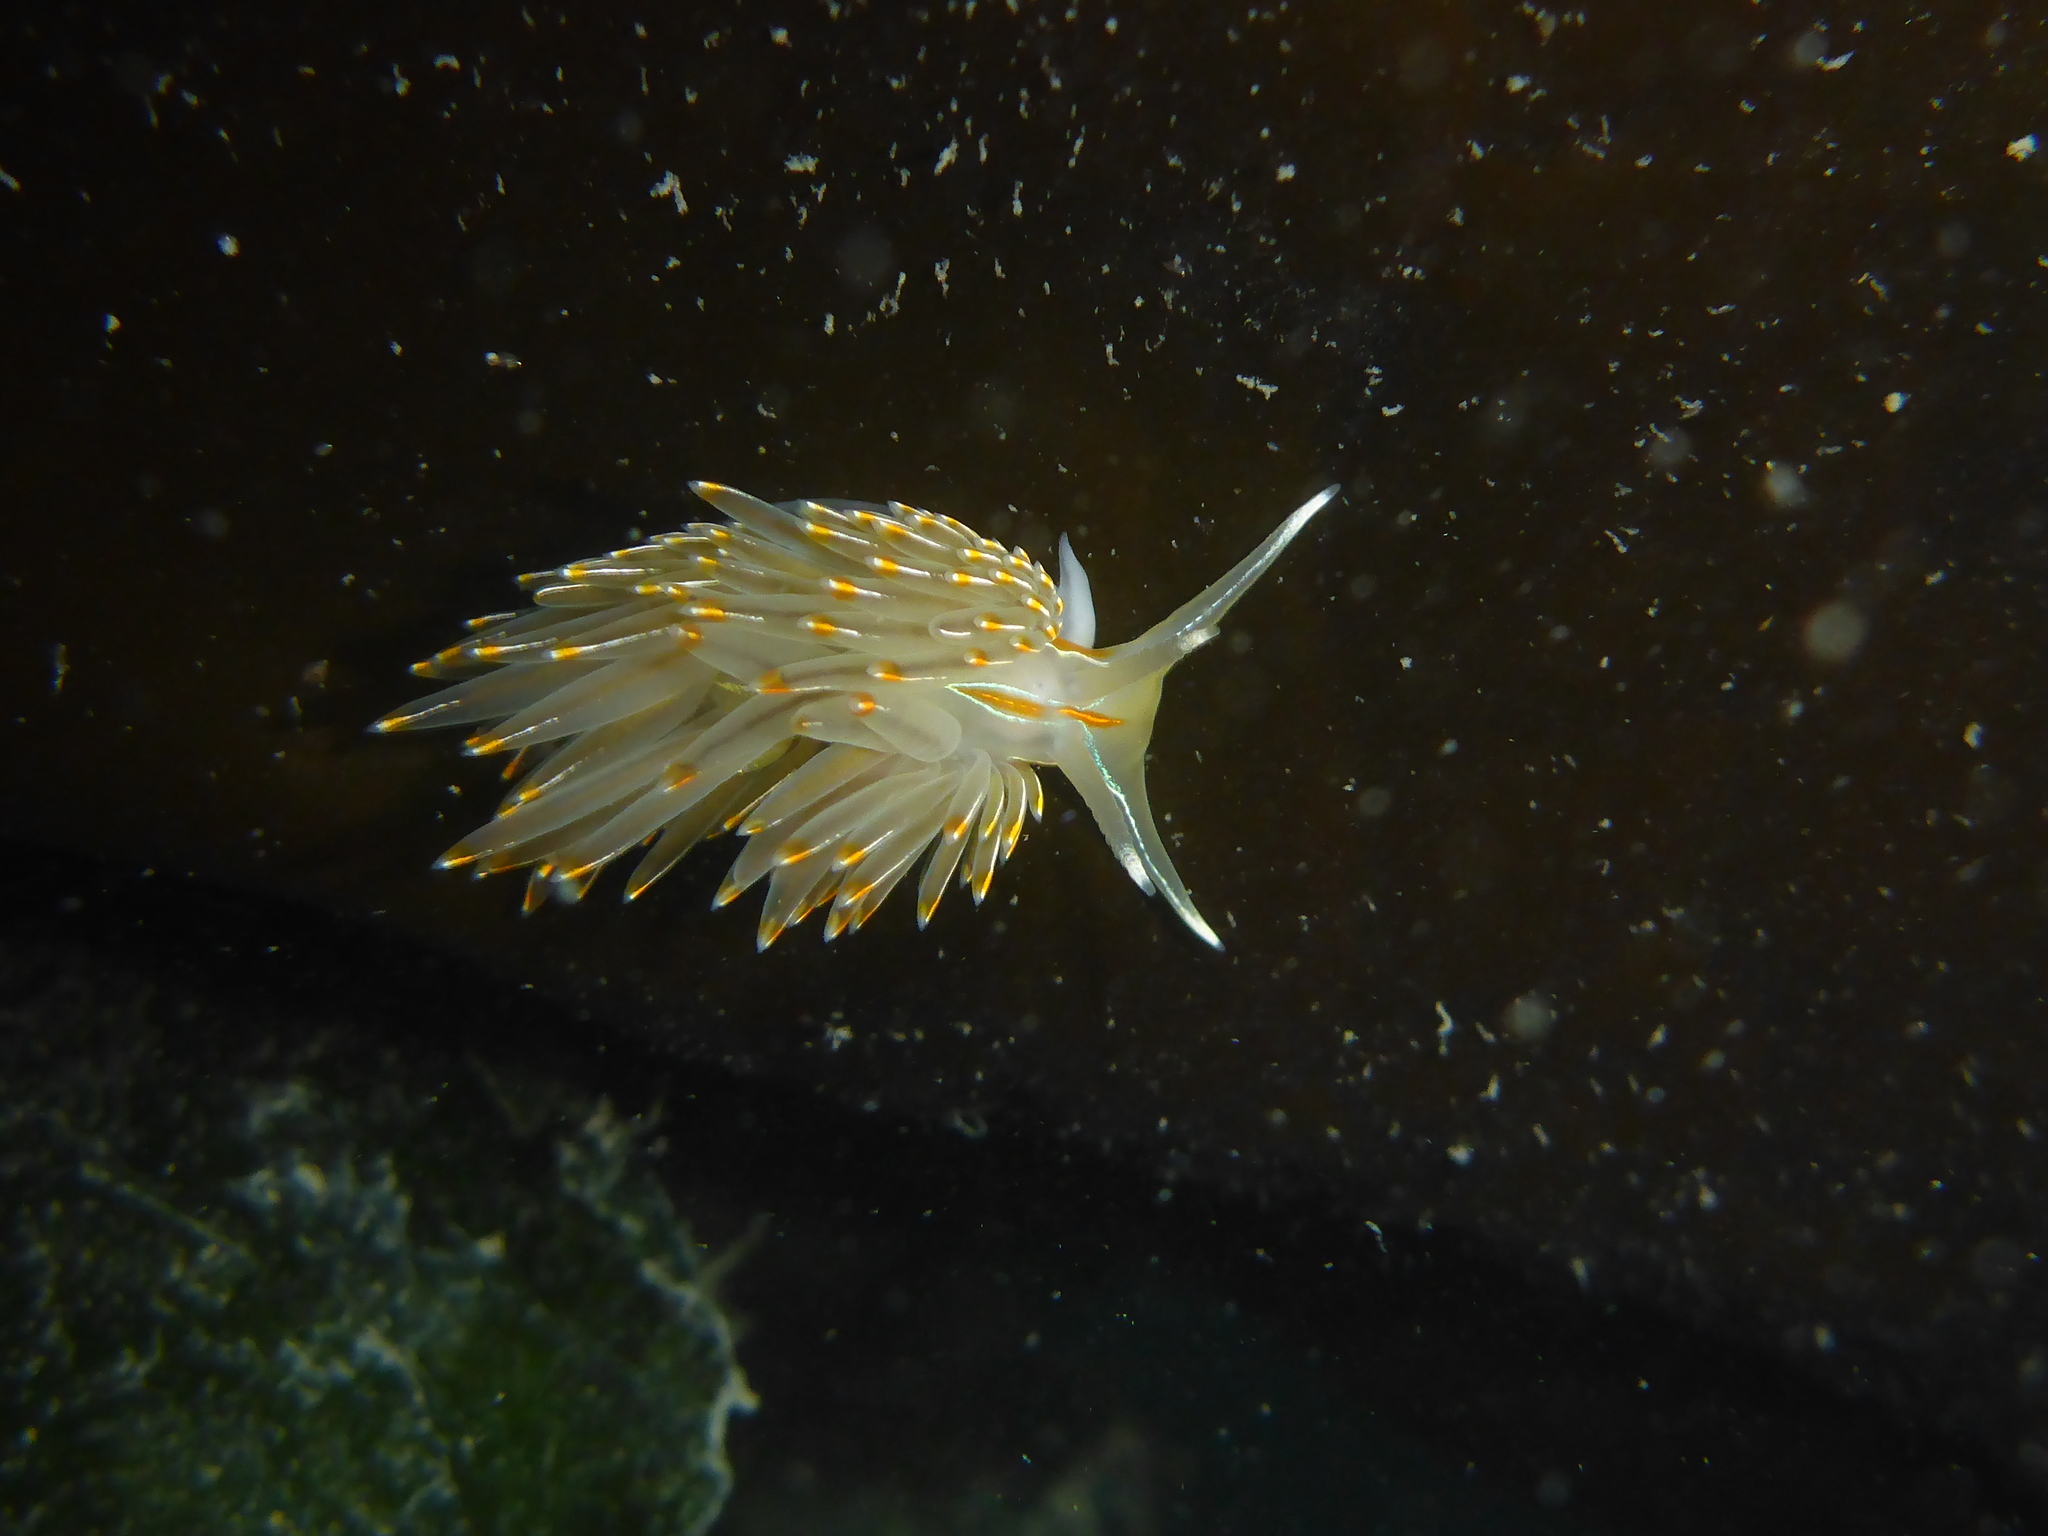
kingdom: Animalia
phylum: Mollusca
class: Gastropoda
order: Nudibranchia
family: Myrrhinidae
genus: Hermissenda
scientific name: Hermissenda crassicornis
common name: Hermissenda
